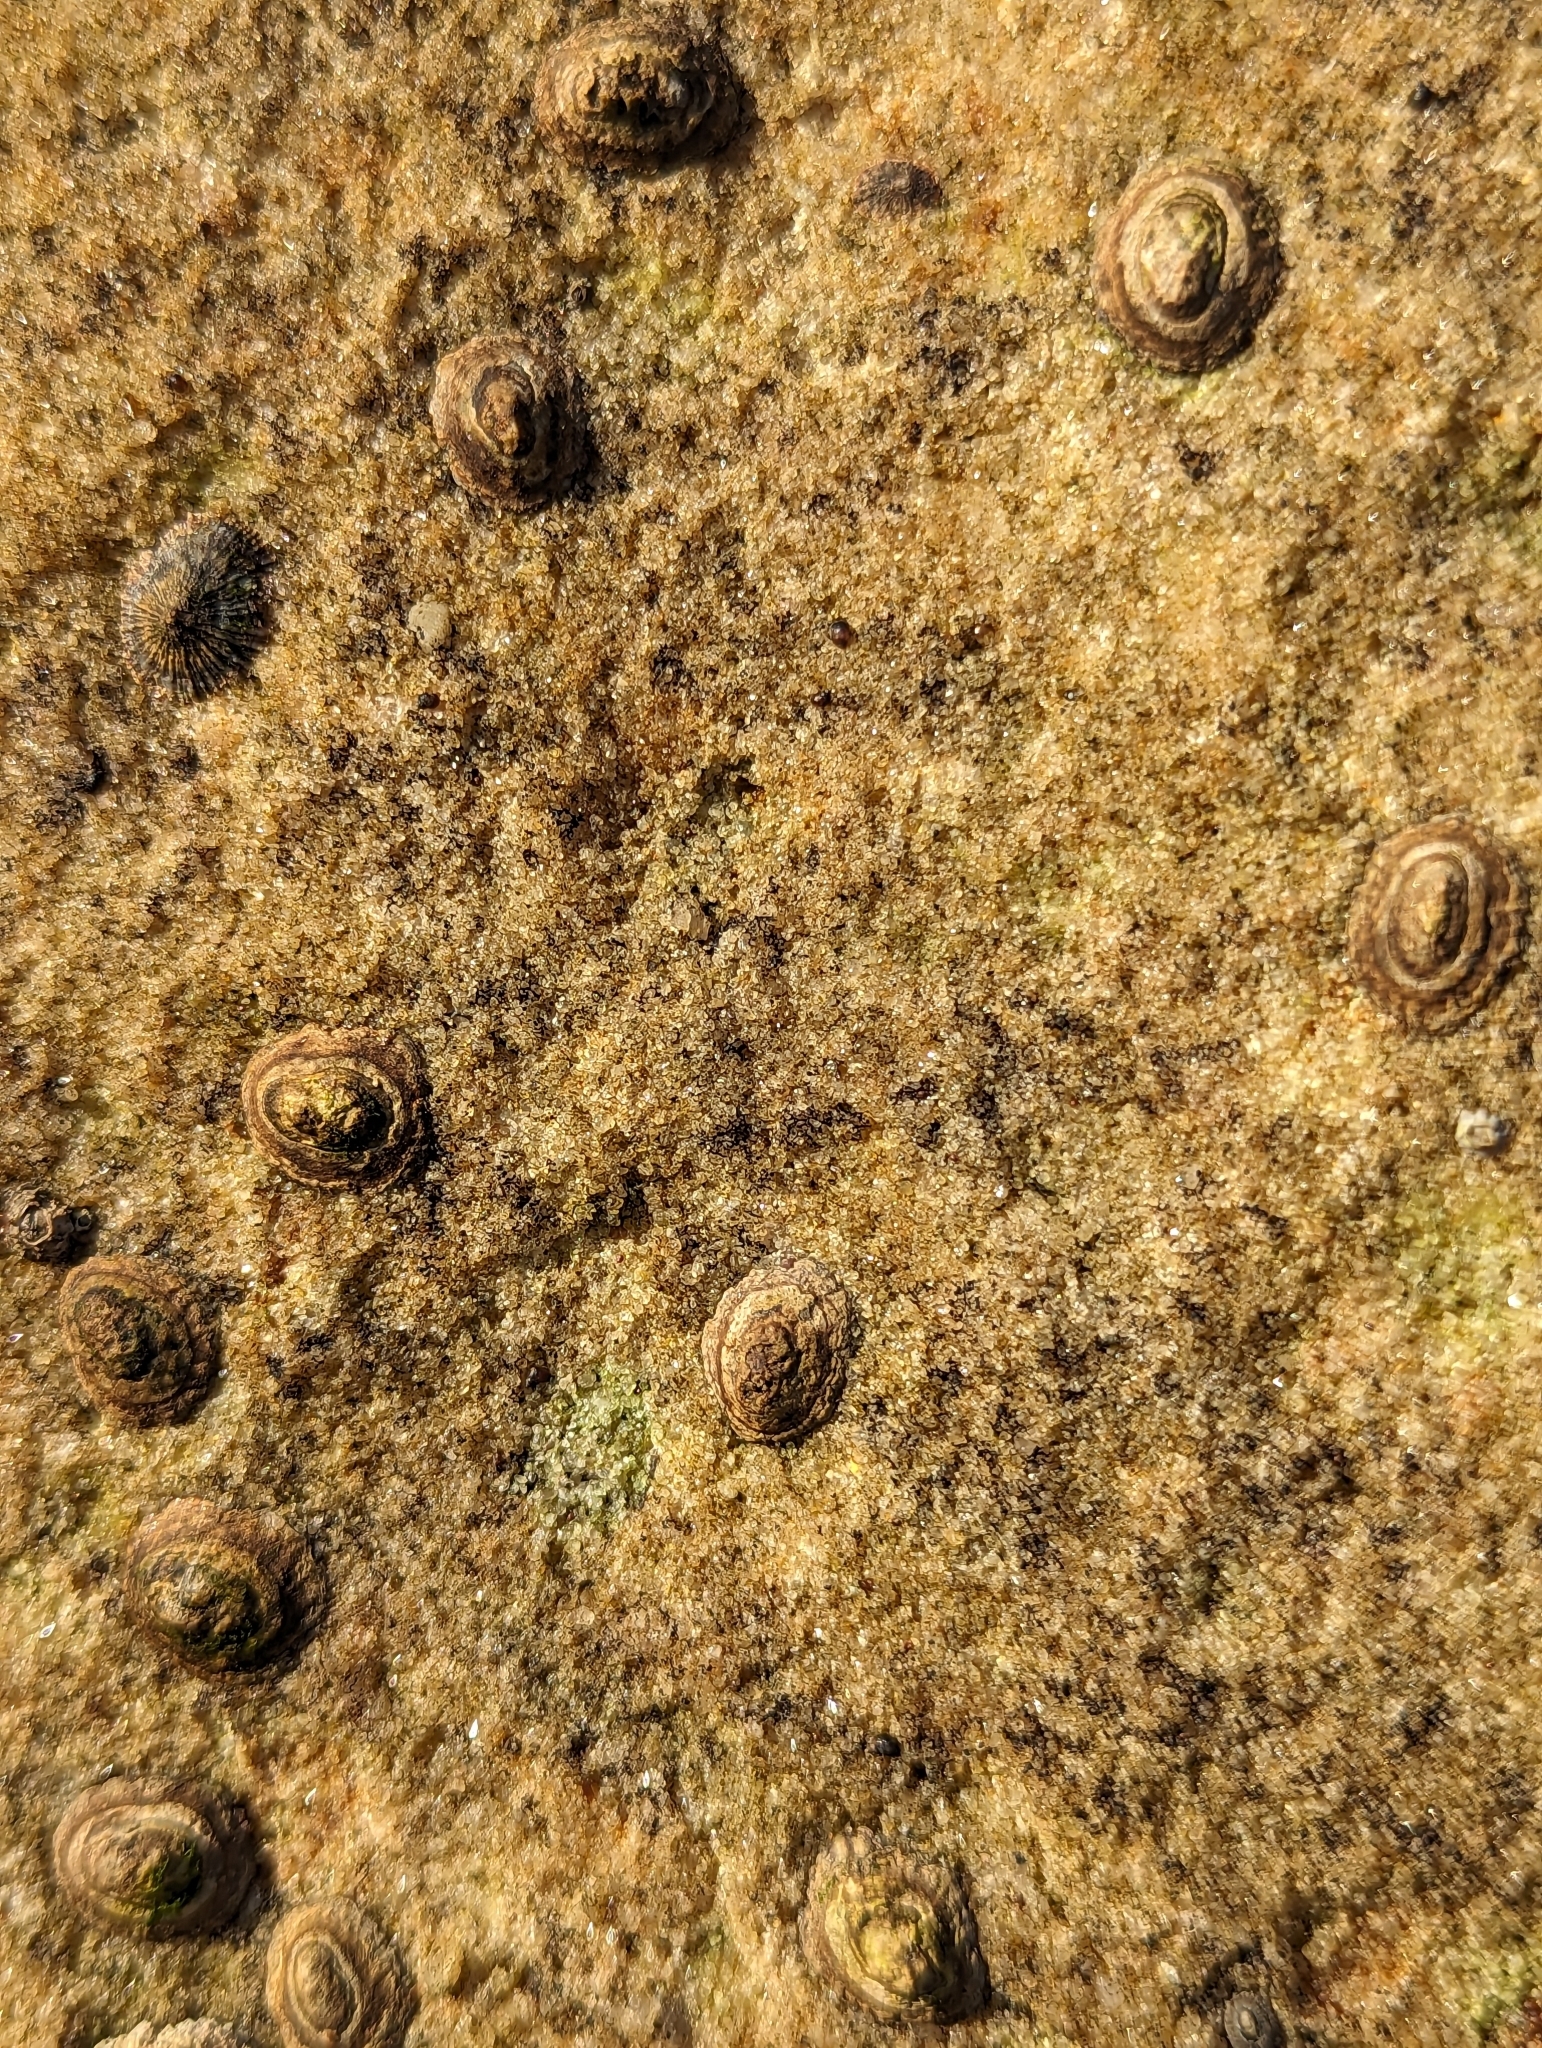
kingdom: Animalia
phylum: Mollusca
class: Gastropoda
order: Siphonariida
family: Siphonariidae
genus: Siphonaria
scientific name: Siphonaria funiculata
